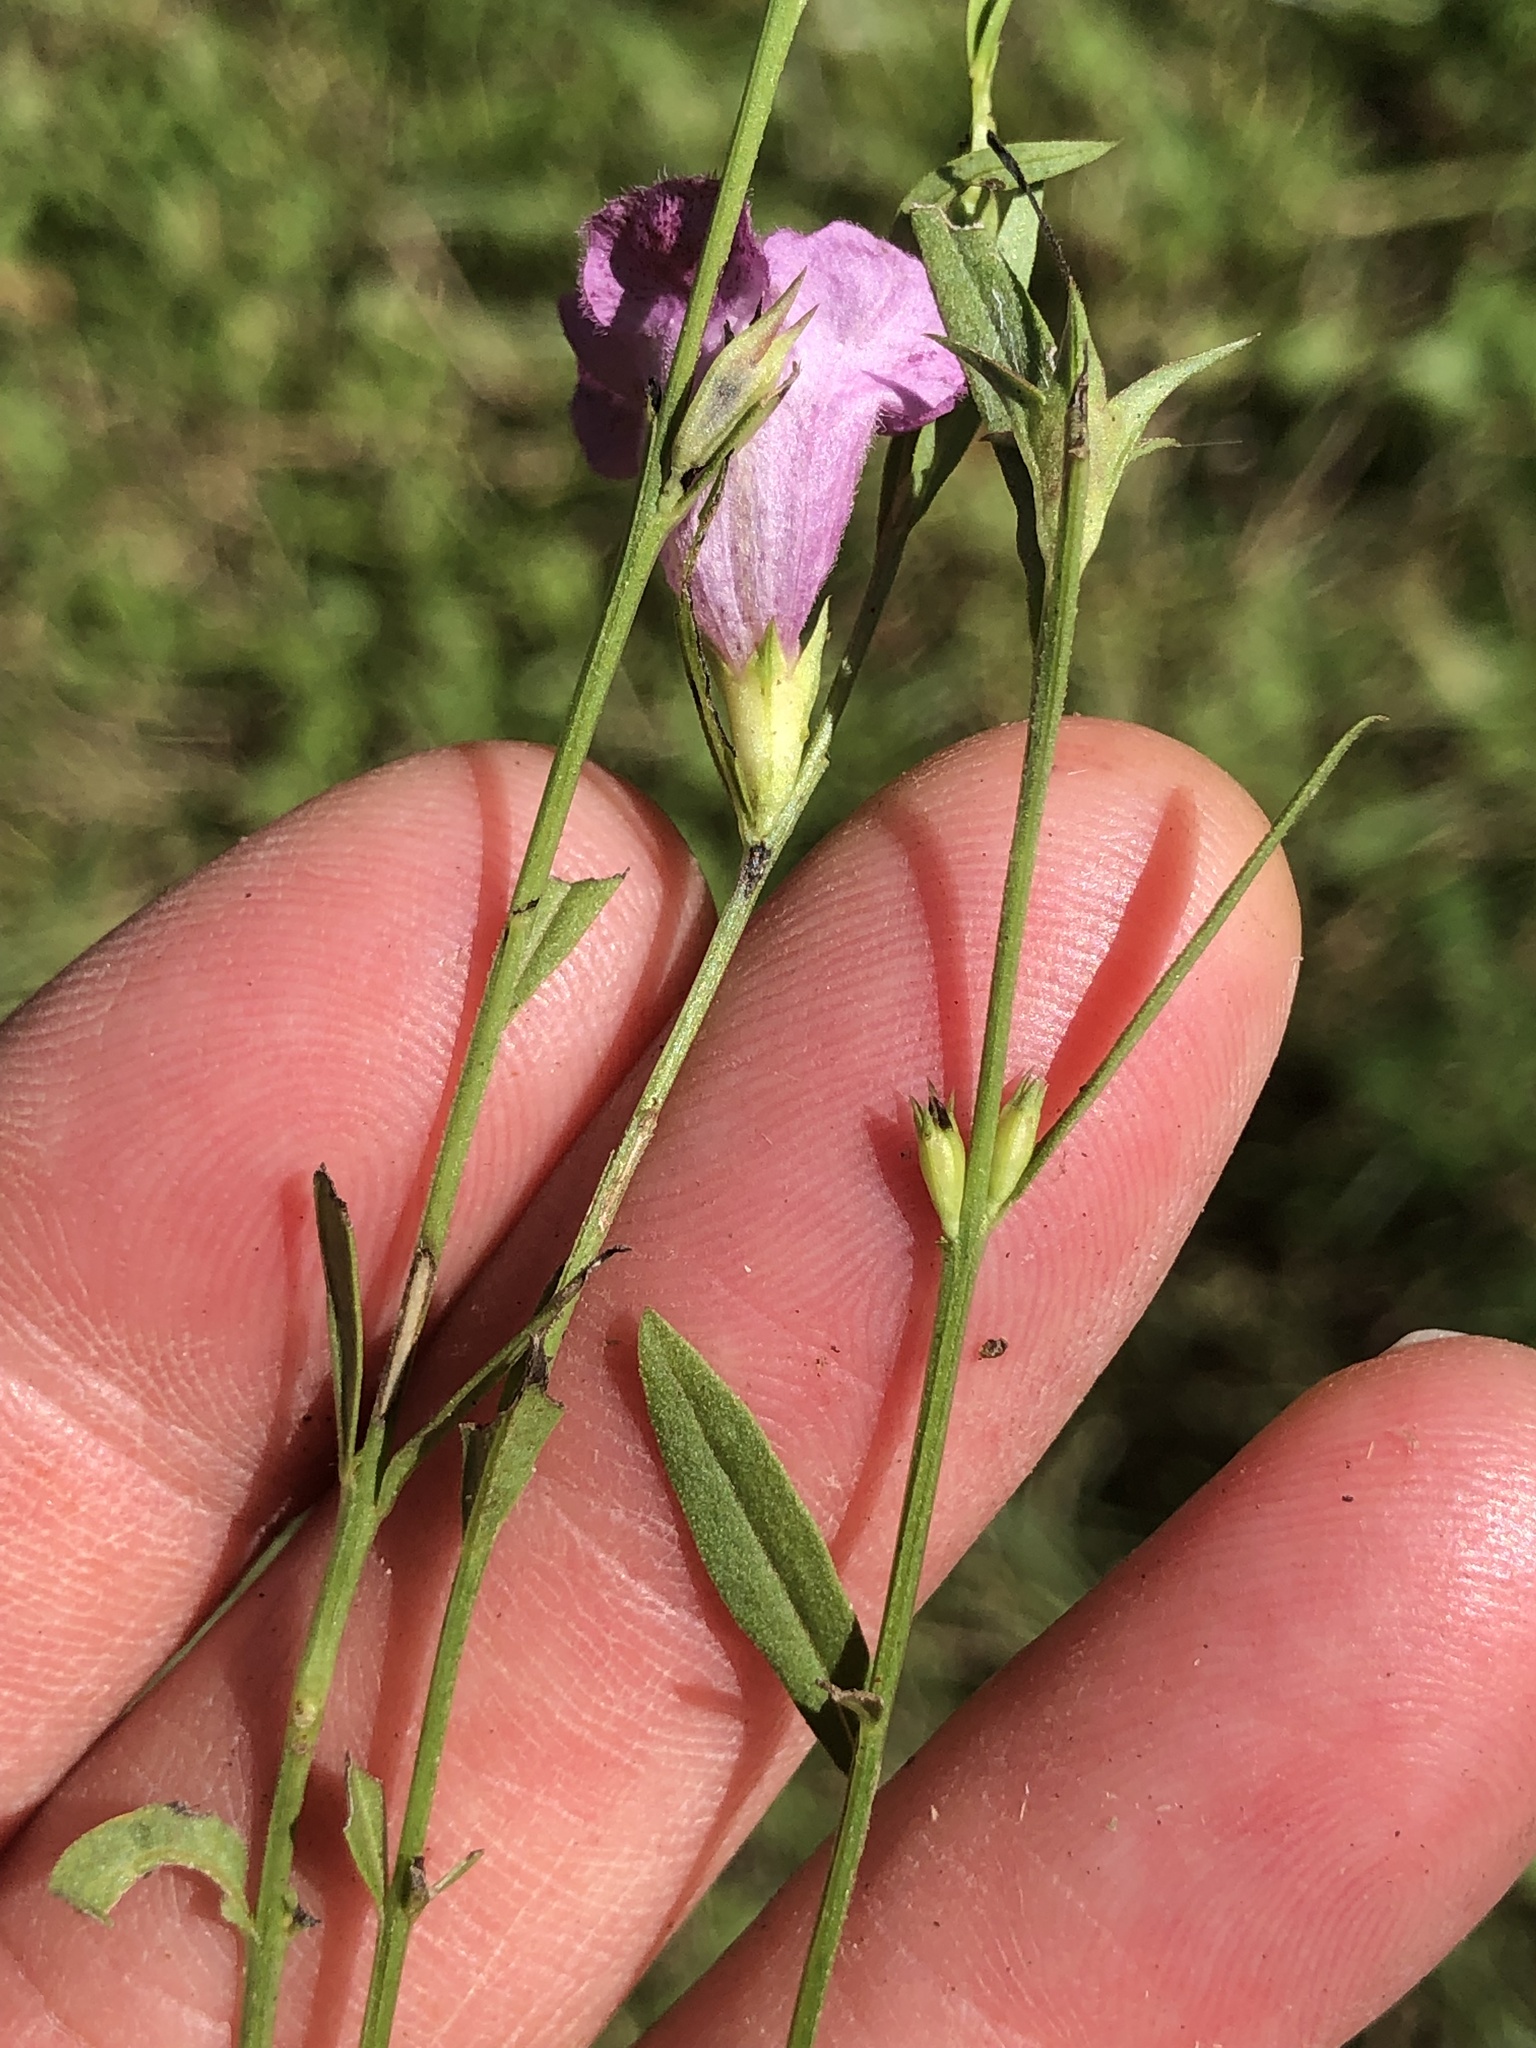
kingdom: Plantae
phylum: Tracheophyta
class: Magnoliopsida
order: Lamiales
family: Orobanchaceae
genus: Agalinis
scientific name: Agalinis heterophylla
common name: Prairie agalinis
